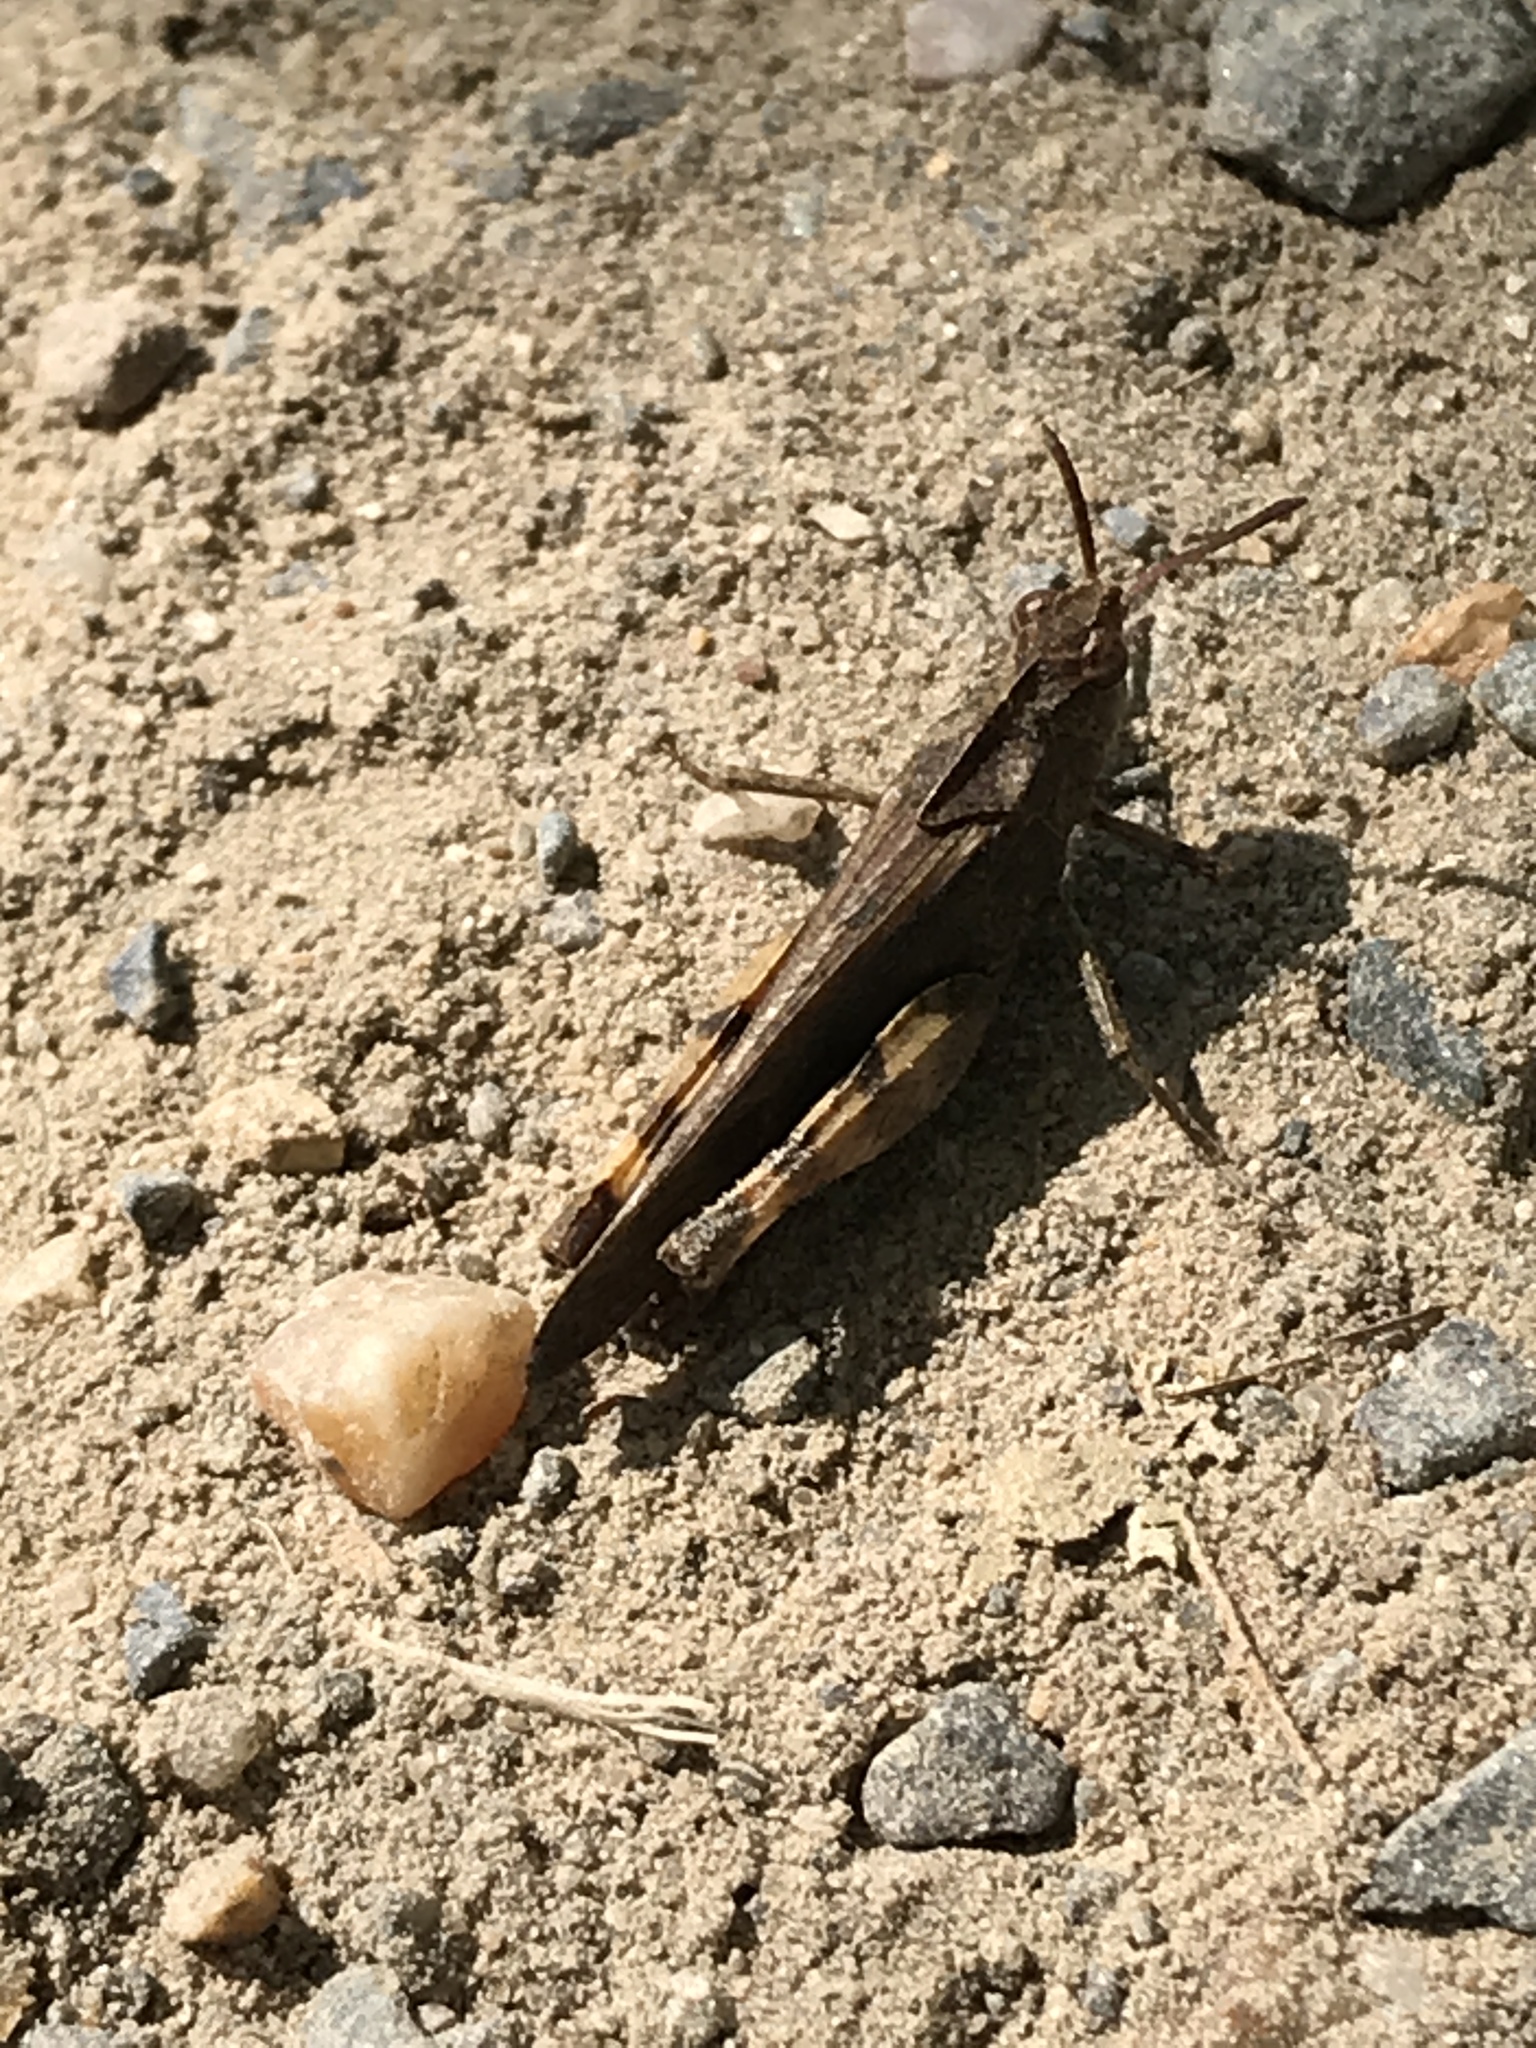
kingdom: Animalia
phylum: Arthropoda
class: Insecta
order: Orthoptera
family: Acrididae
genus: Chortophaga
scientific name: Chortophaga viridifasciata
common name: Green-striped grasshopper
